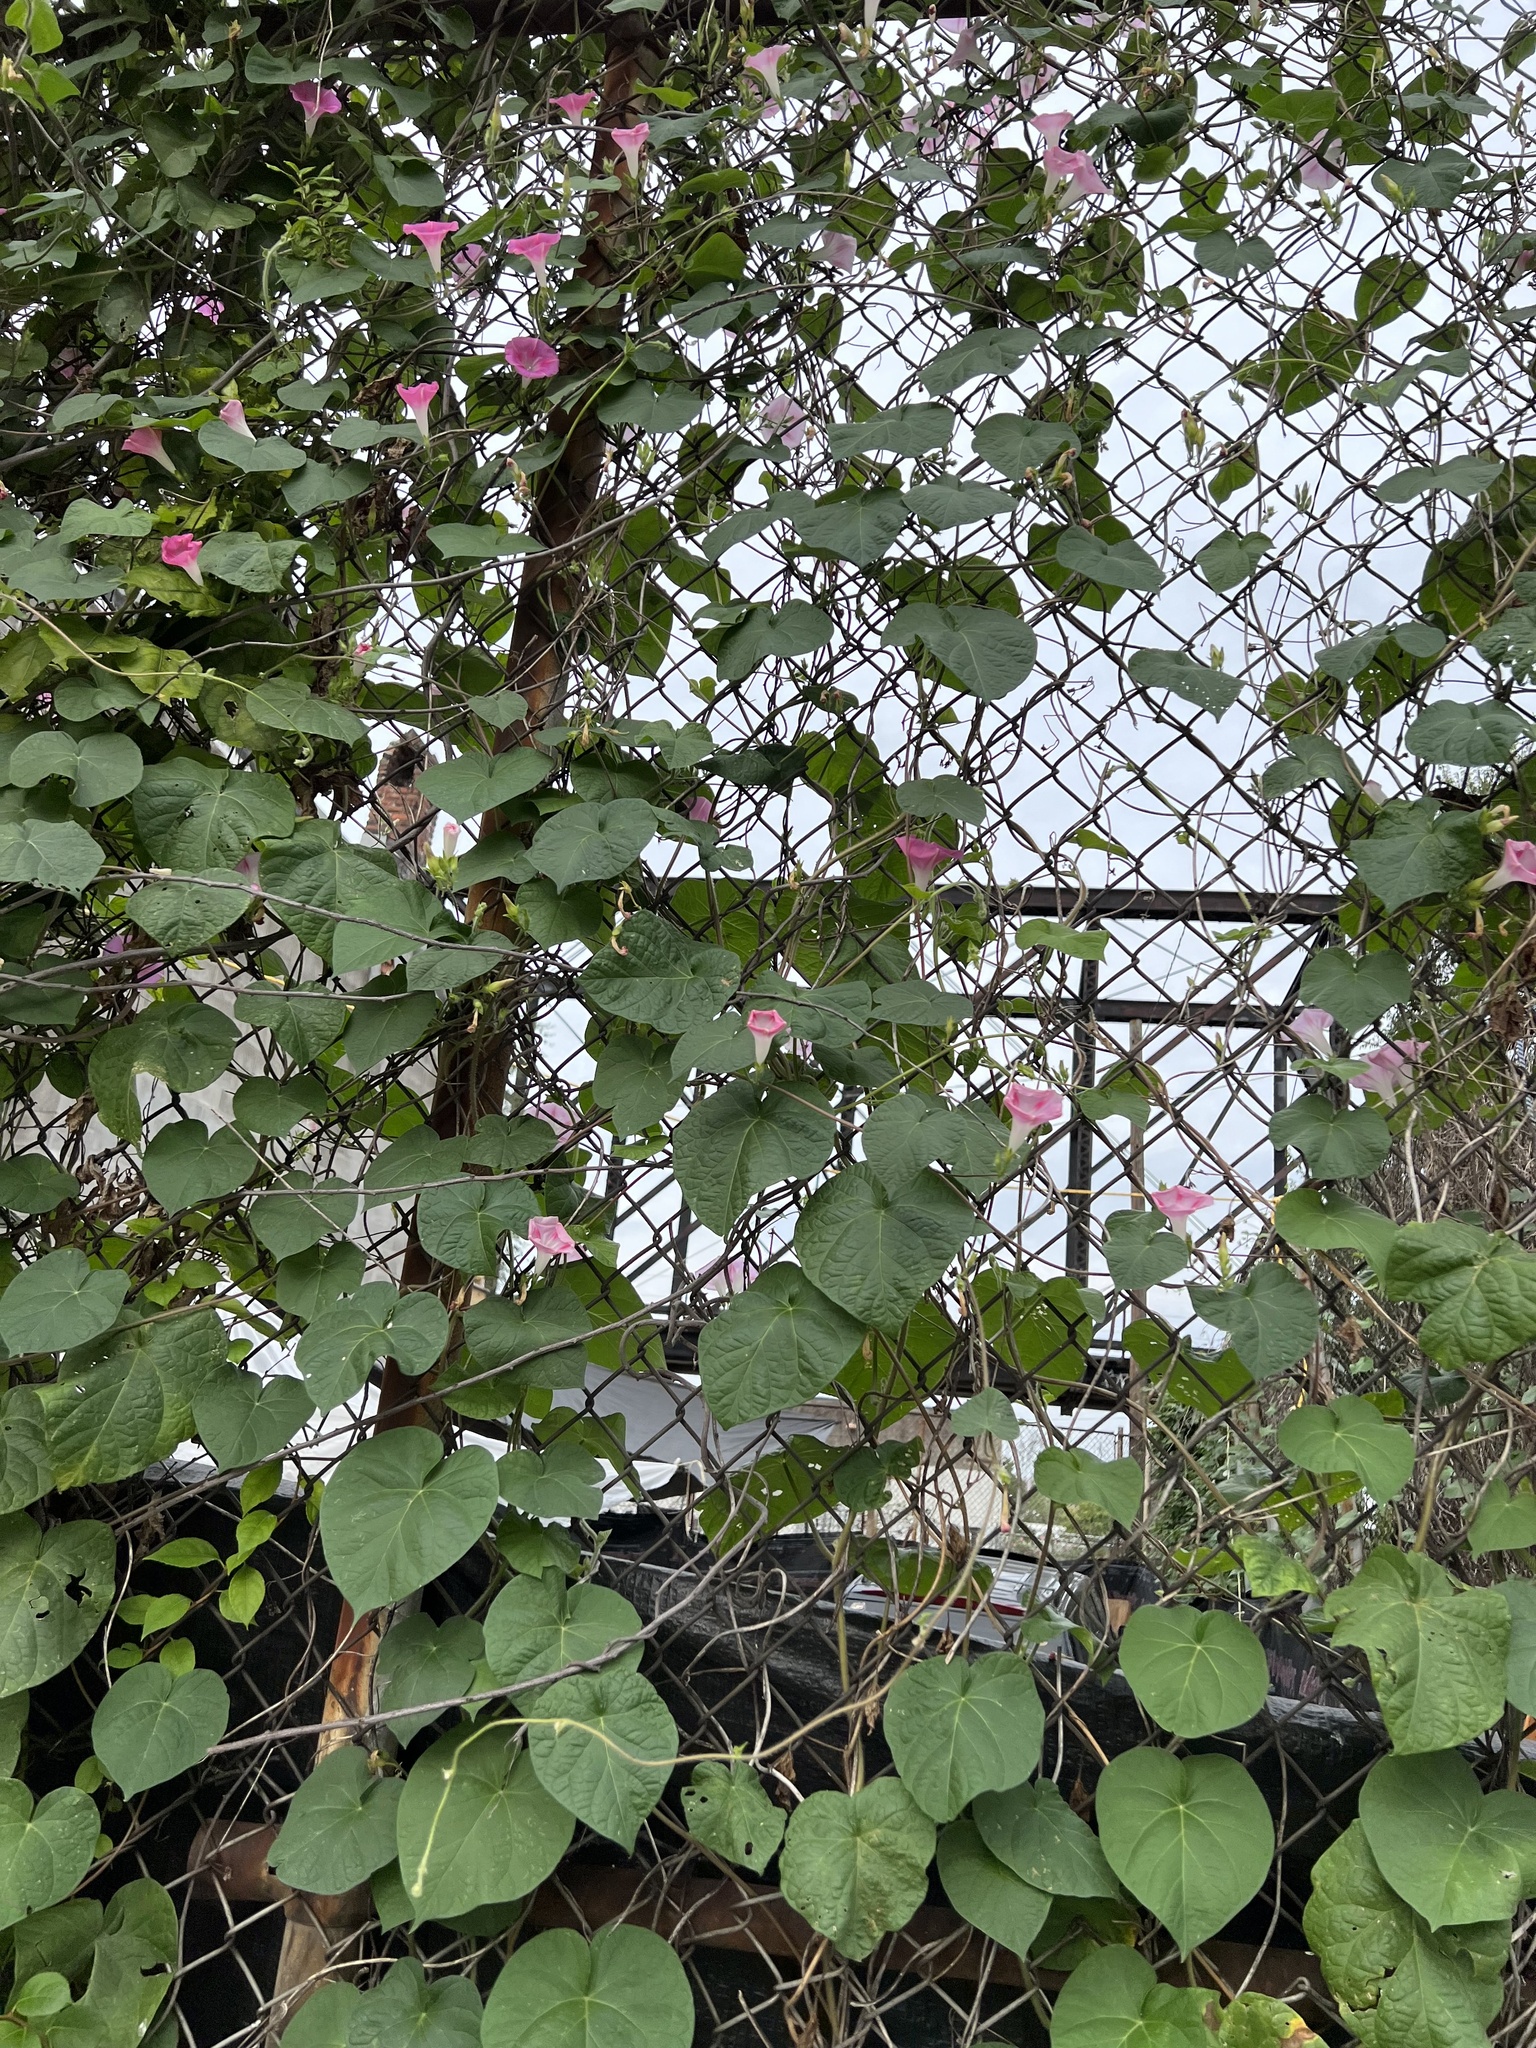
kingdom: Plantae
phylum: Tracheophyta
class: Magnoliopsida
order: Solanales
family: Convolvulaceae
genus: Ipomoea
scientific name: Ipomoea purpurea
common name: Common morning-glory
